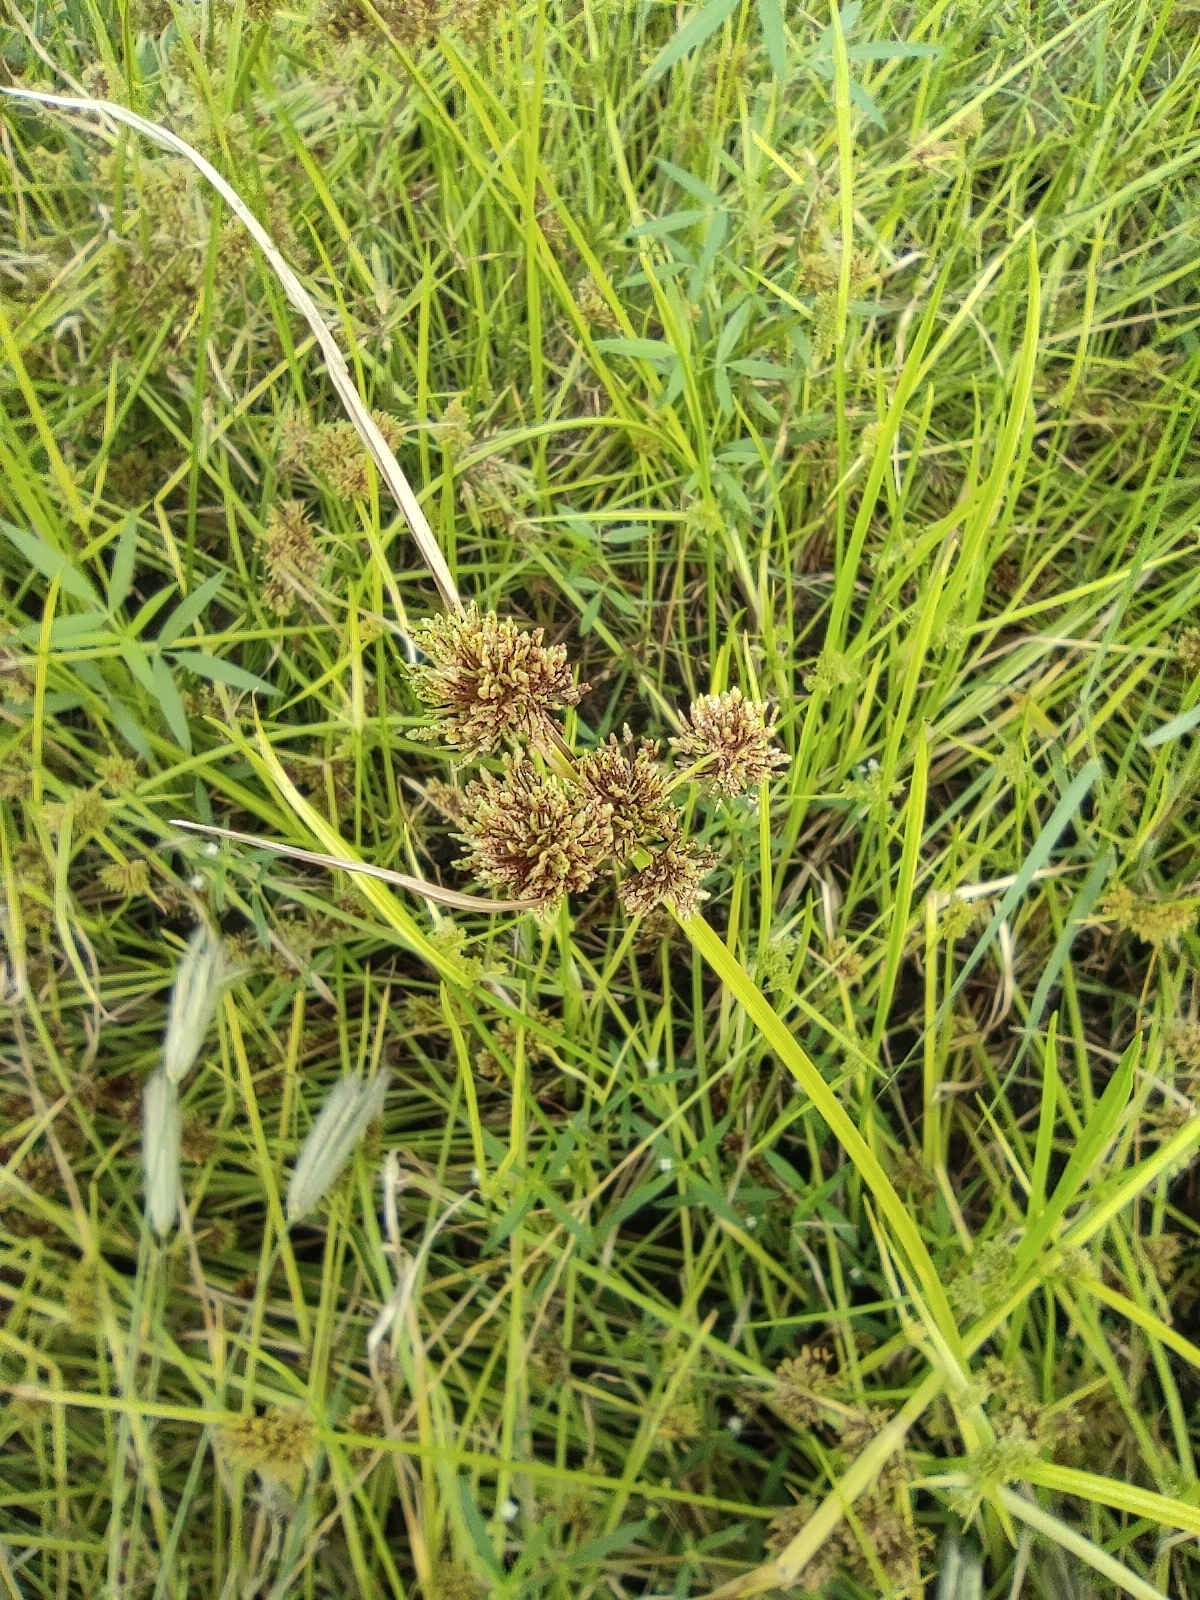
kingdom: Plantae
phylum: Tracheophyta
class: Liliopsida
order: Poales
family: Cyperaceae
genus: Cyperus
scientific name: Cyperus difformis
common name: Variable flatsedge
